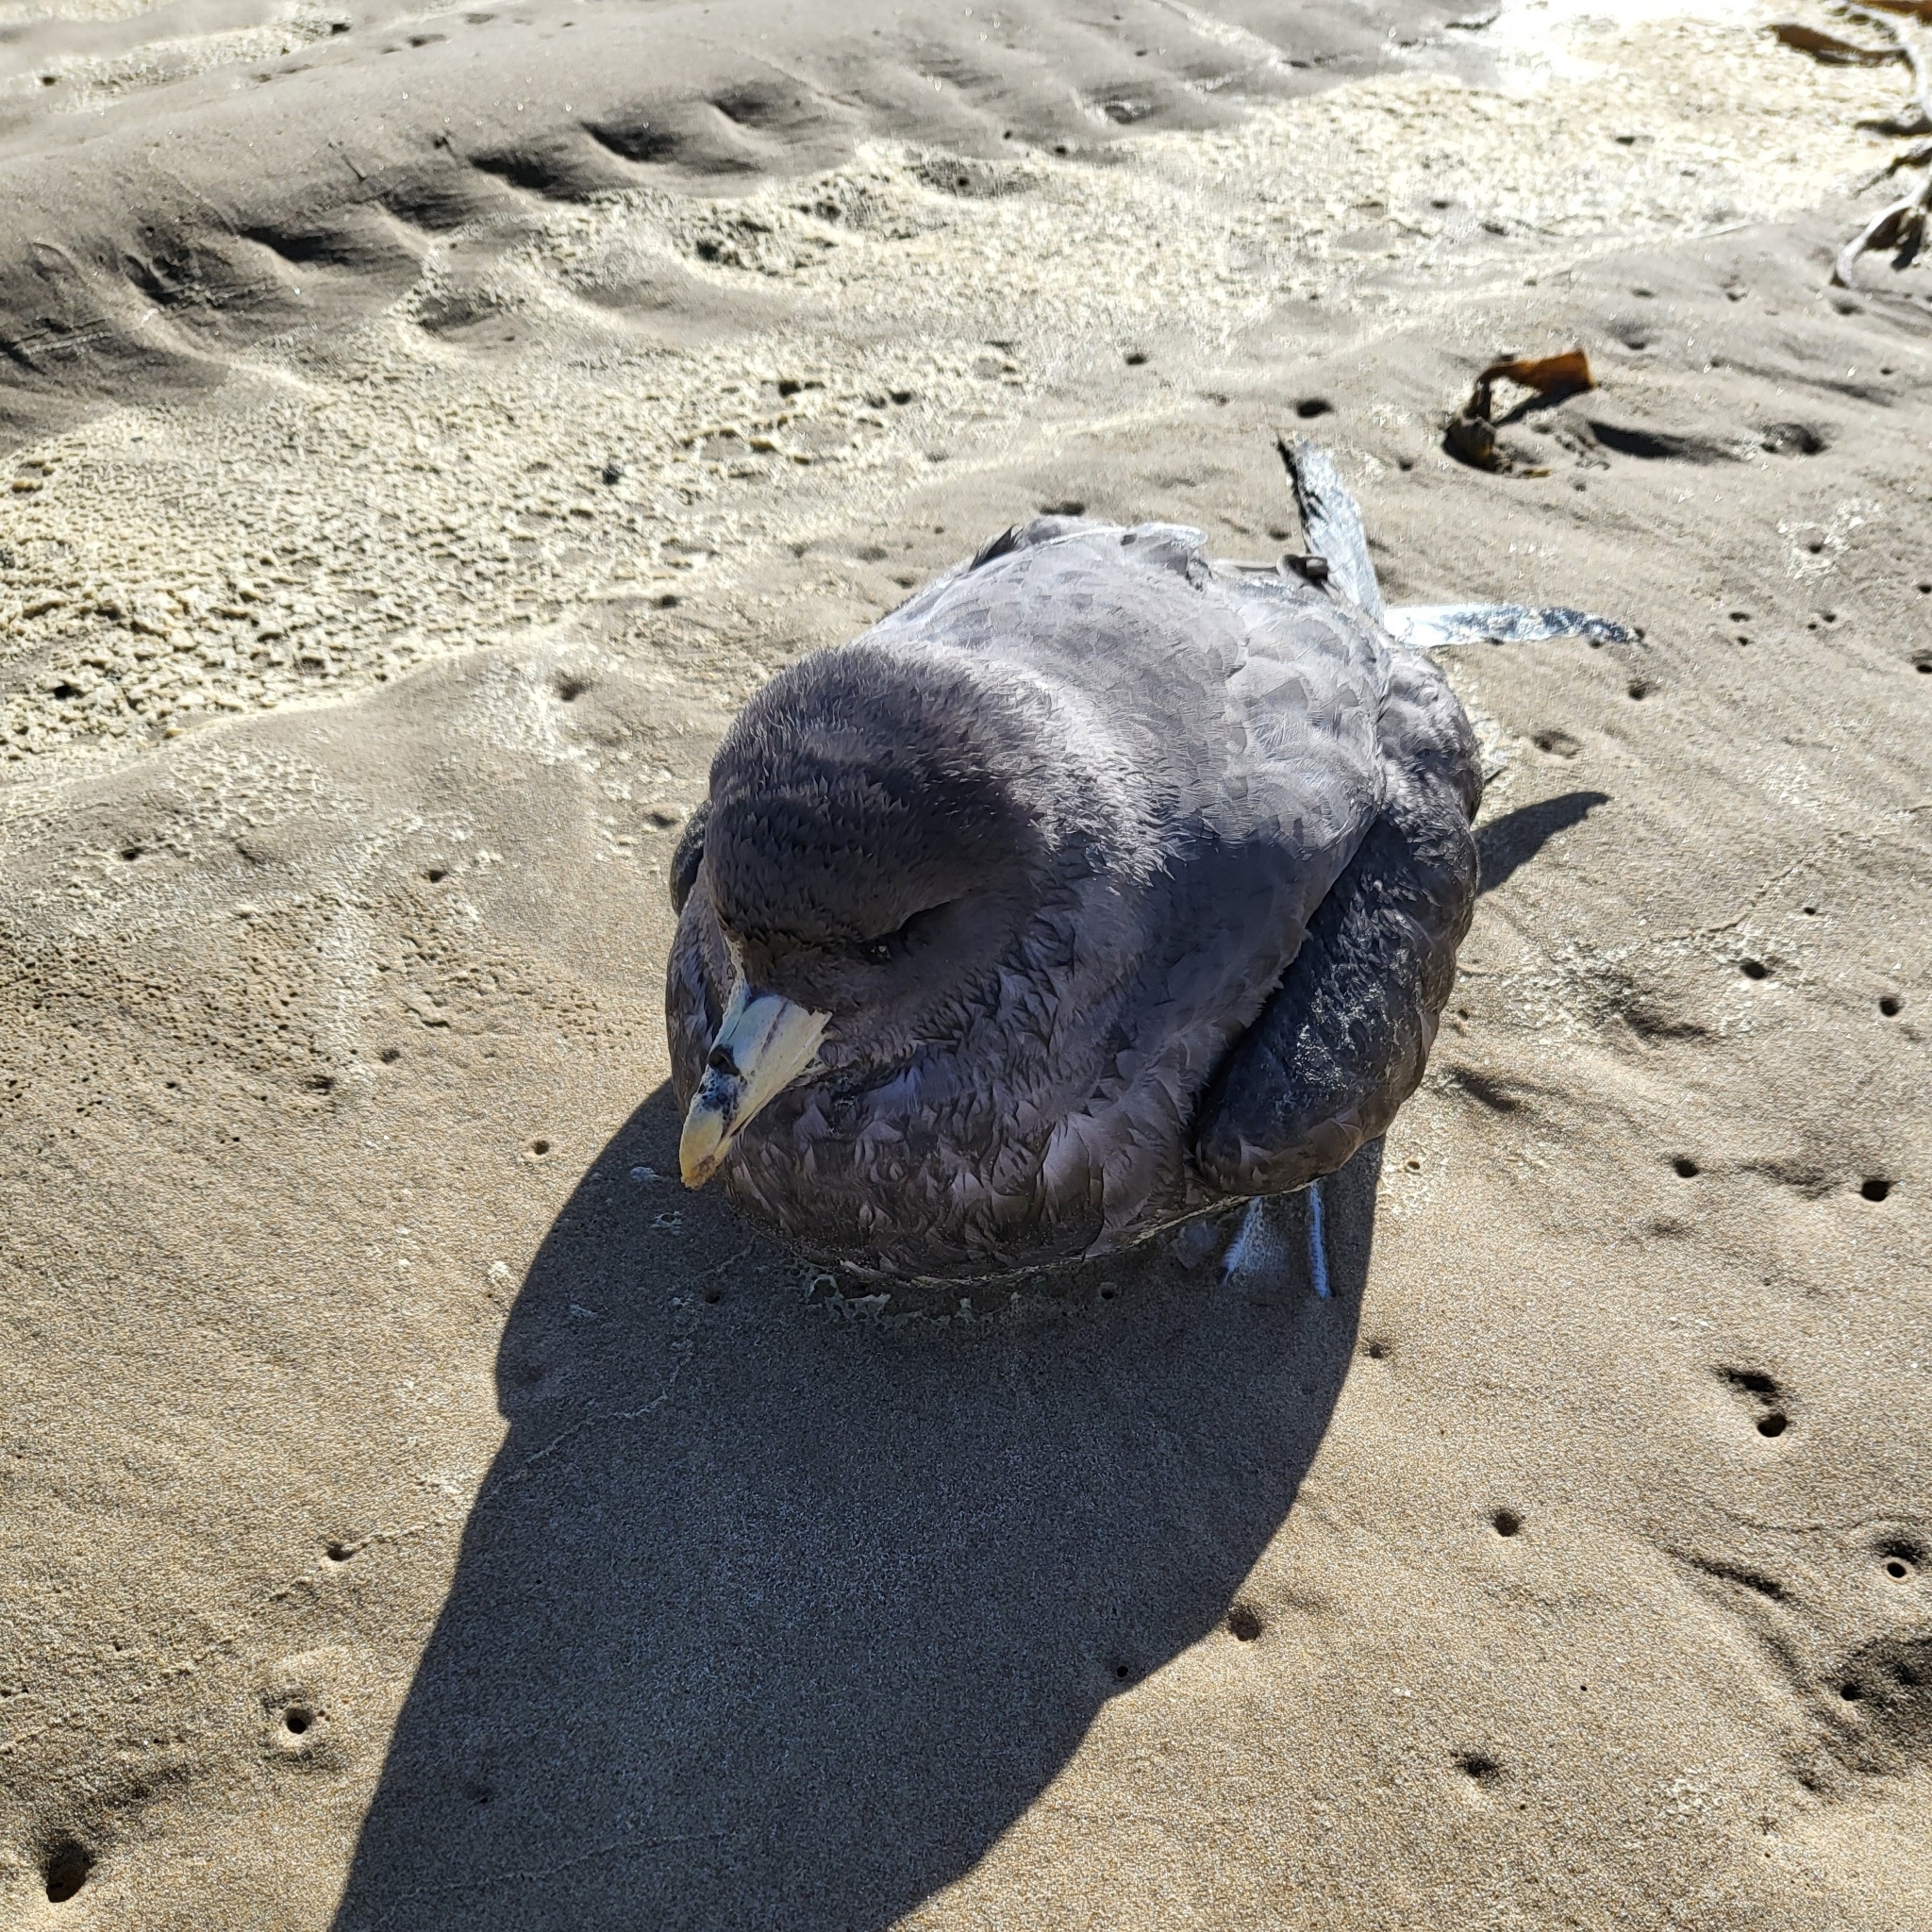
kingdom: Animalia
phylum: Chordata
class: Aves
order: Procellariiformes
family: Procellariidae
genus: Fulmarus
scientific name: Fulmarus glacialis
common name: Northern fulmar
